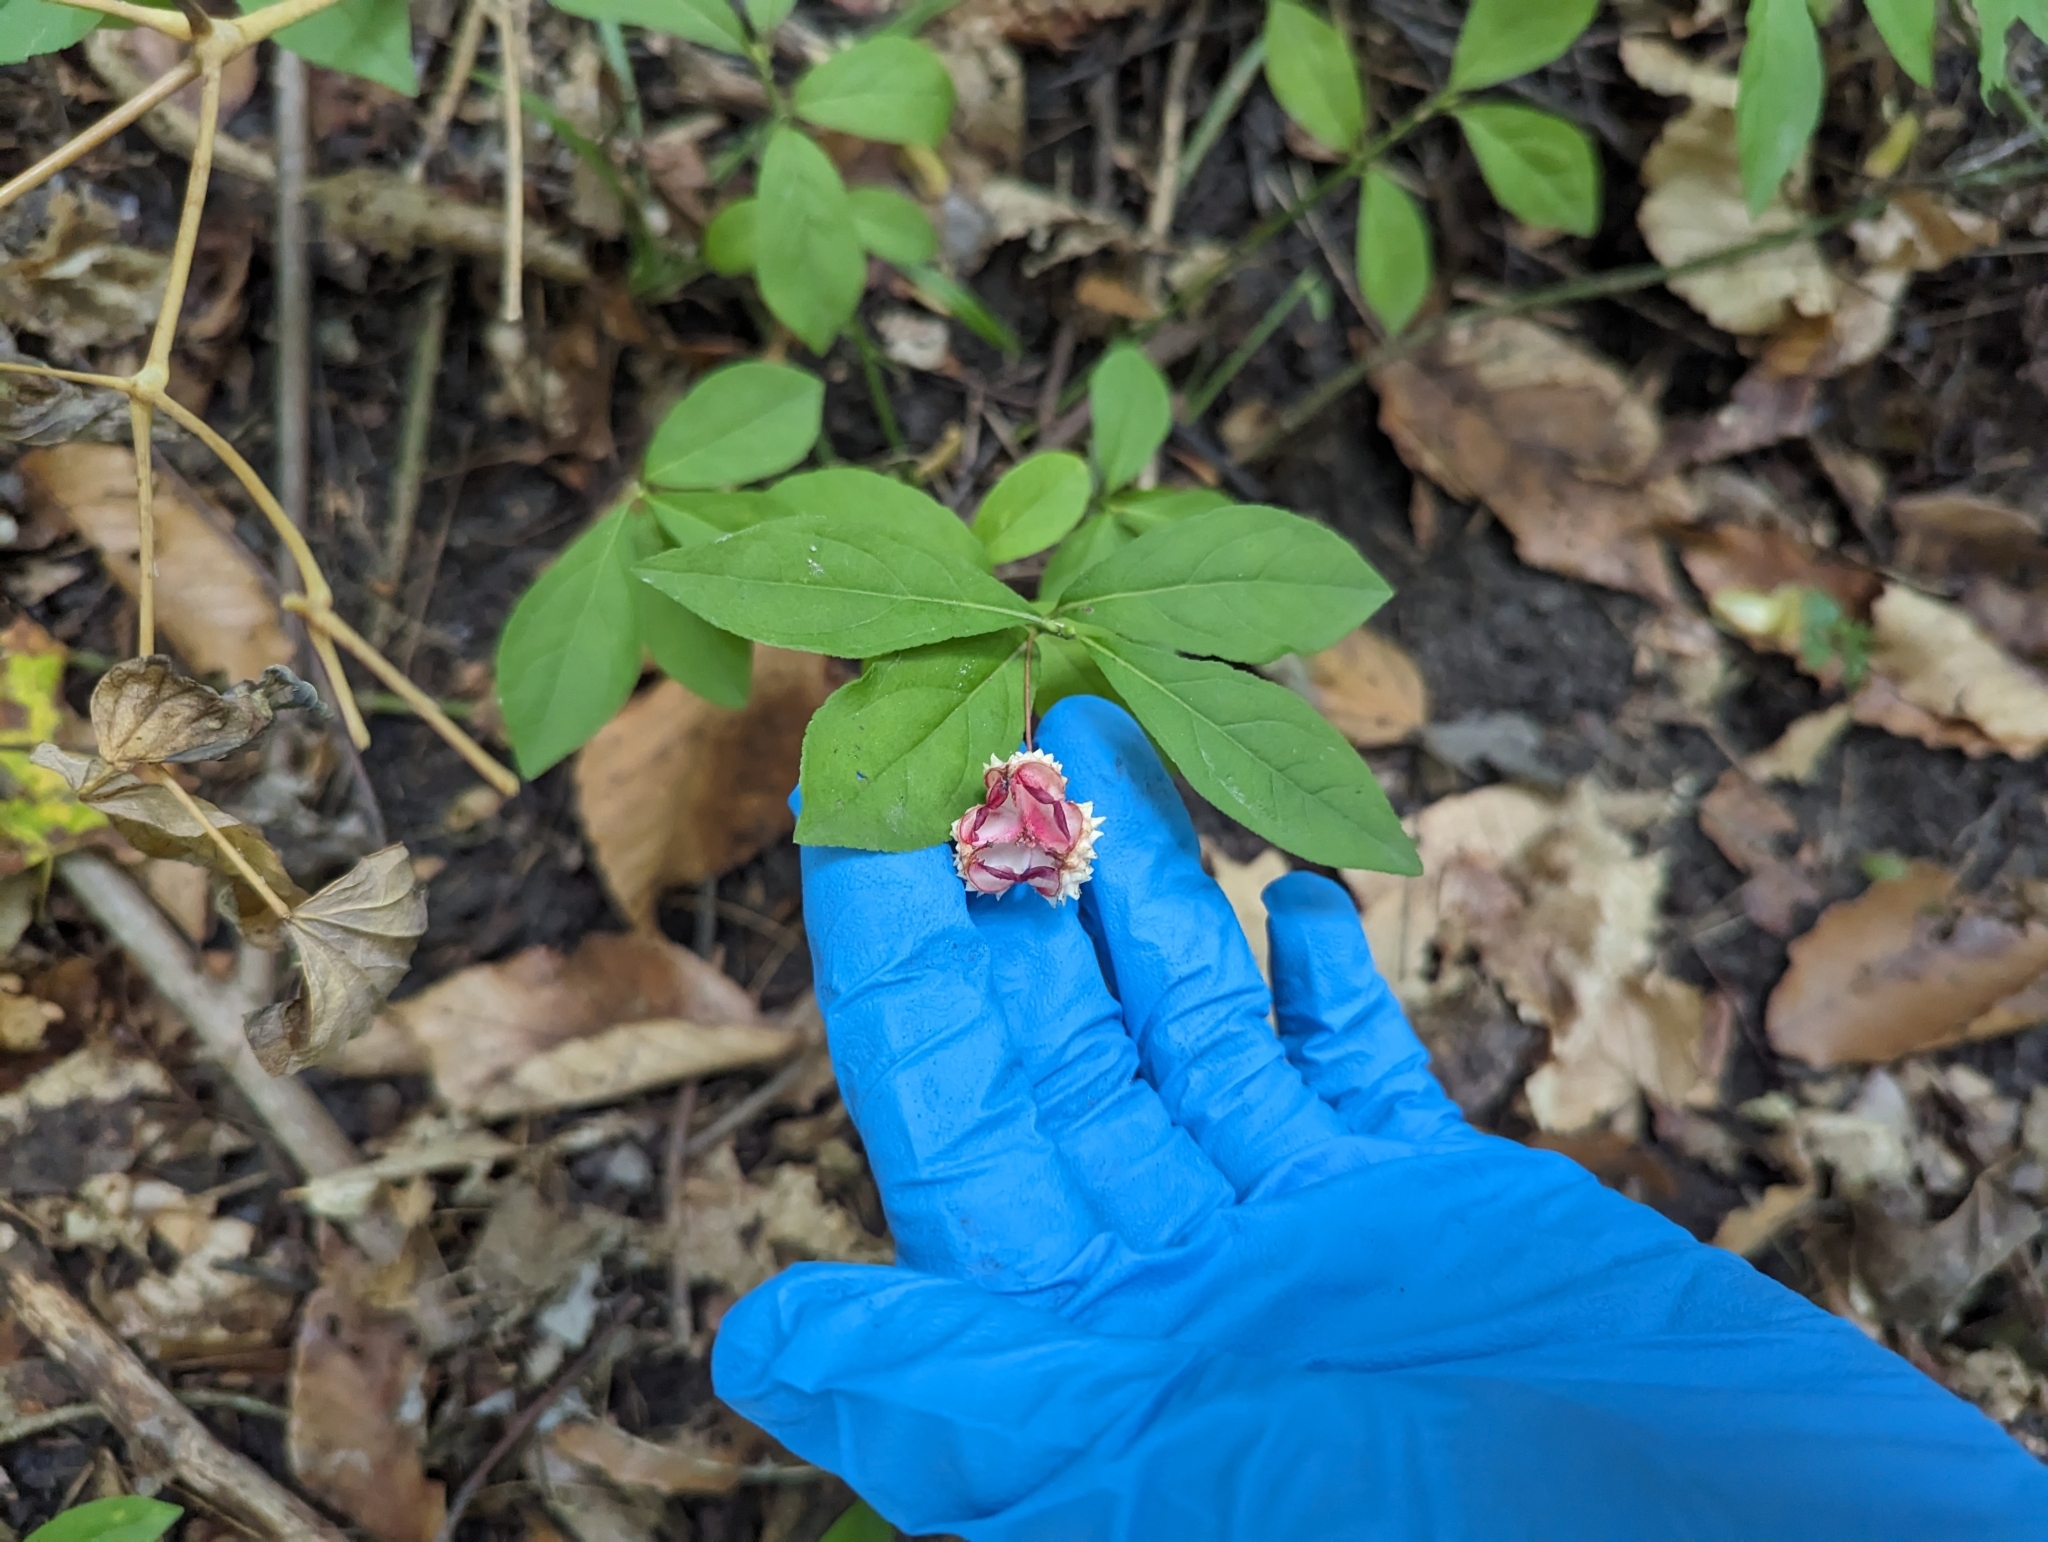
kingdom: Plantae
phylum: Tracheophyta
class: Magnoliopsida
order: Celastrales
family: Celastraceae
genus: Euonymus
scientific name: Euonymus obovatus
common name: Running strawberry-bush
